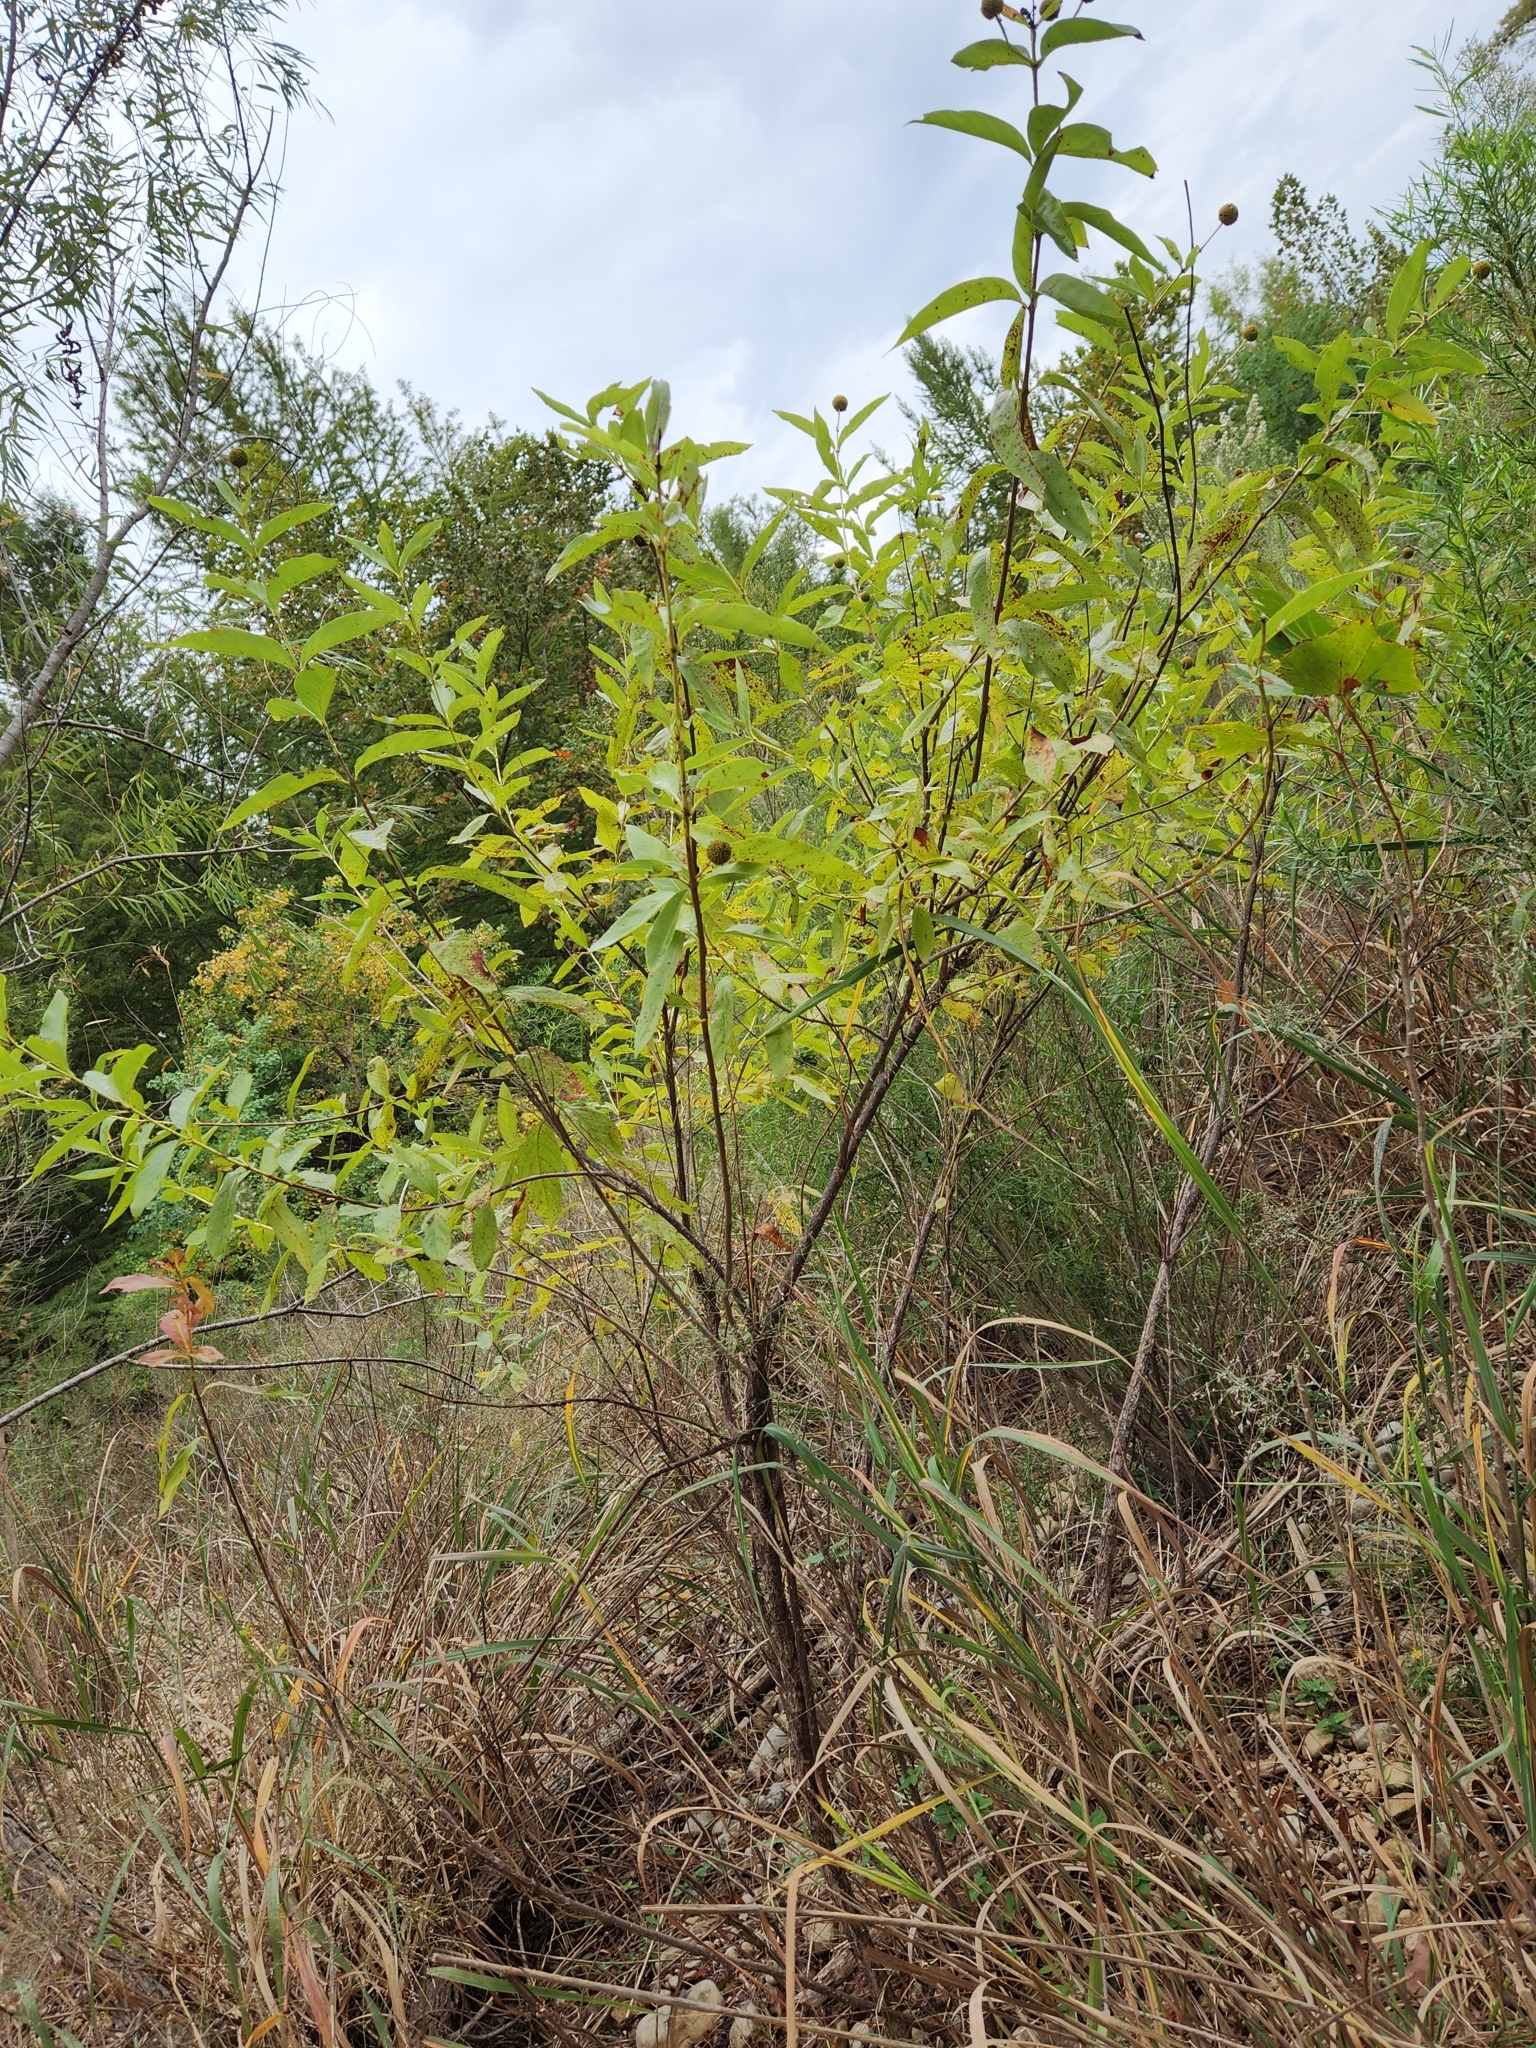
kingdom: Plantae
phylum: Tracheophyta
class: Magnoliopsida
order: Gentianales
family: Rubiaceae
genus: Cephalanthus
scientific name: Cephalanthus occidentalis
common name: Button-willow
